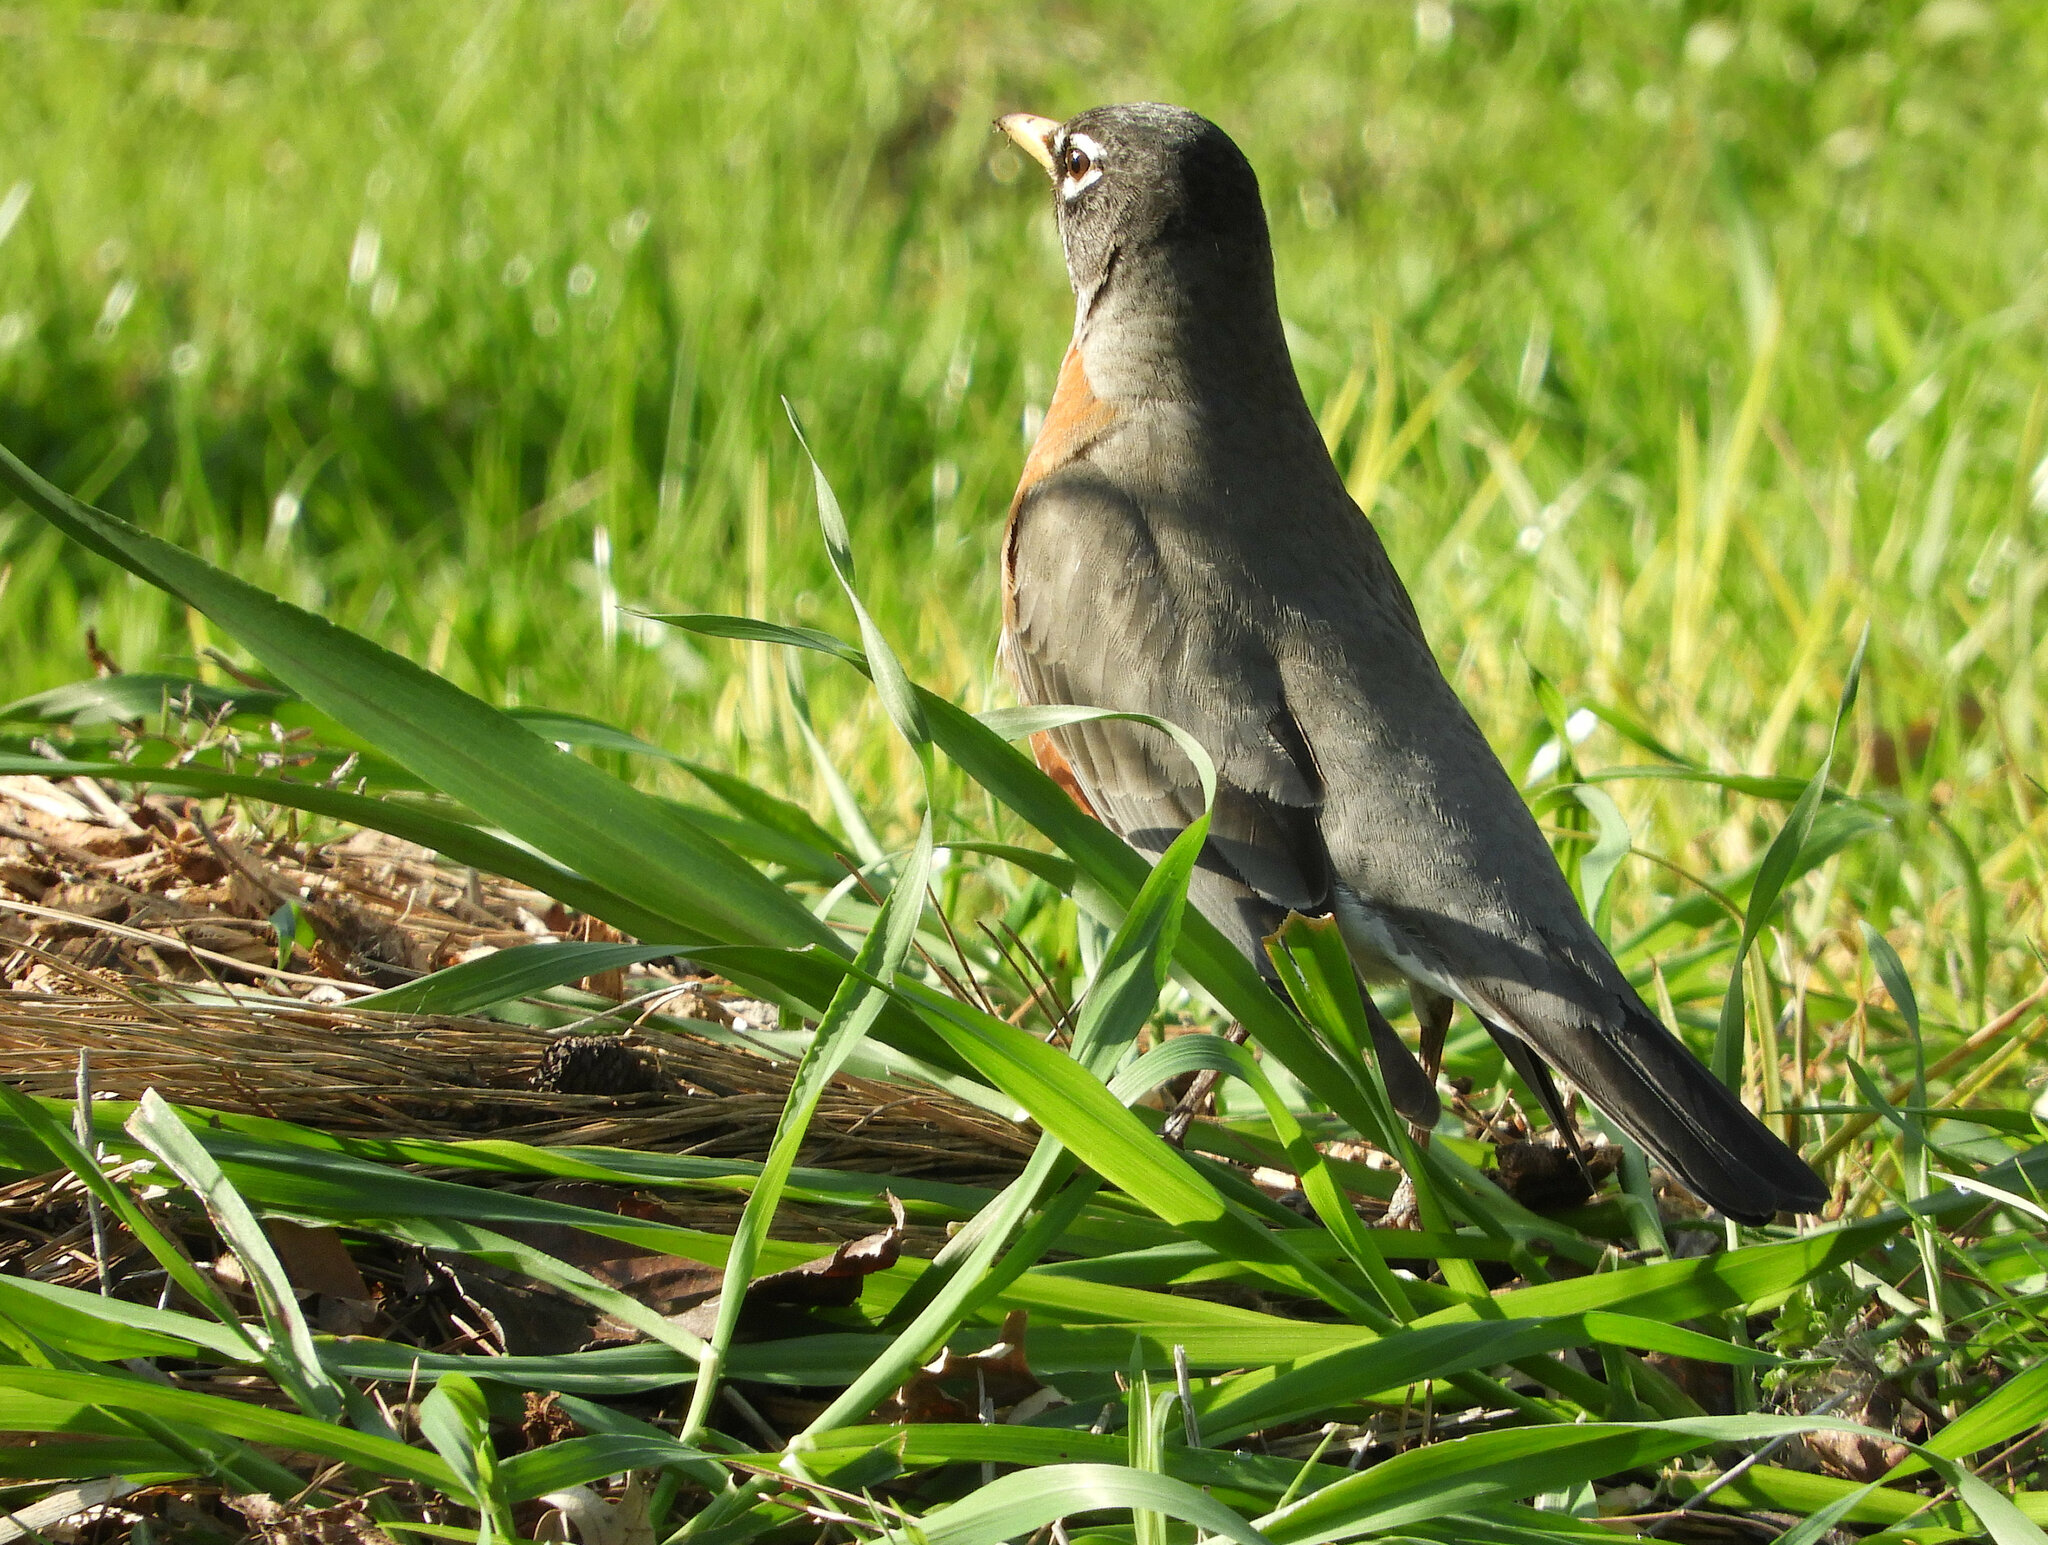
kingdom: Animalia
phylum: Chordata
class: Aves
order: Passeriformes
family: Turdidae
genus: Turdus
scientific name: Turdus migratorius
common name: American robin
